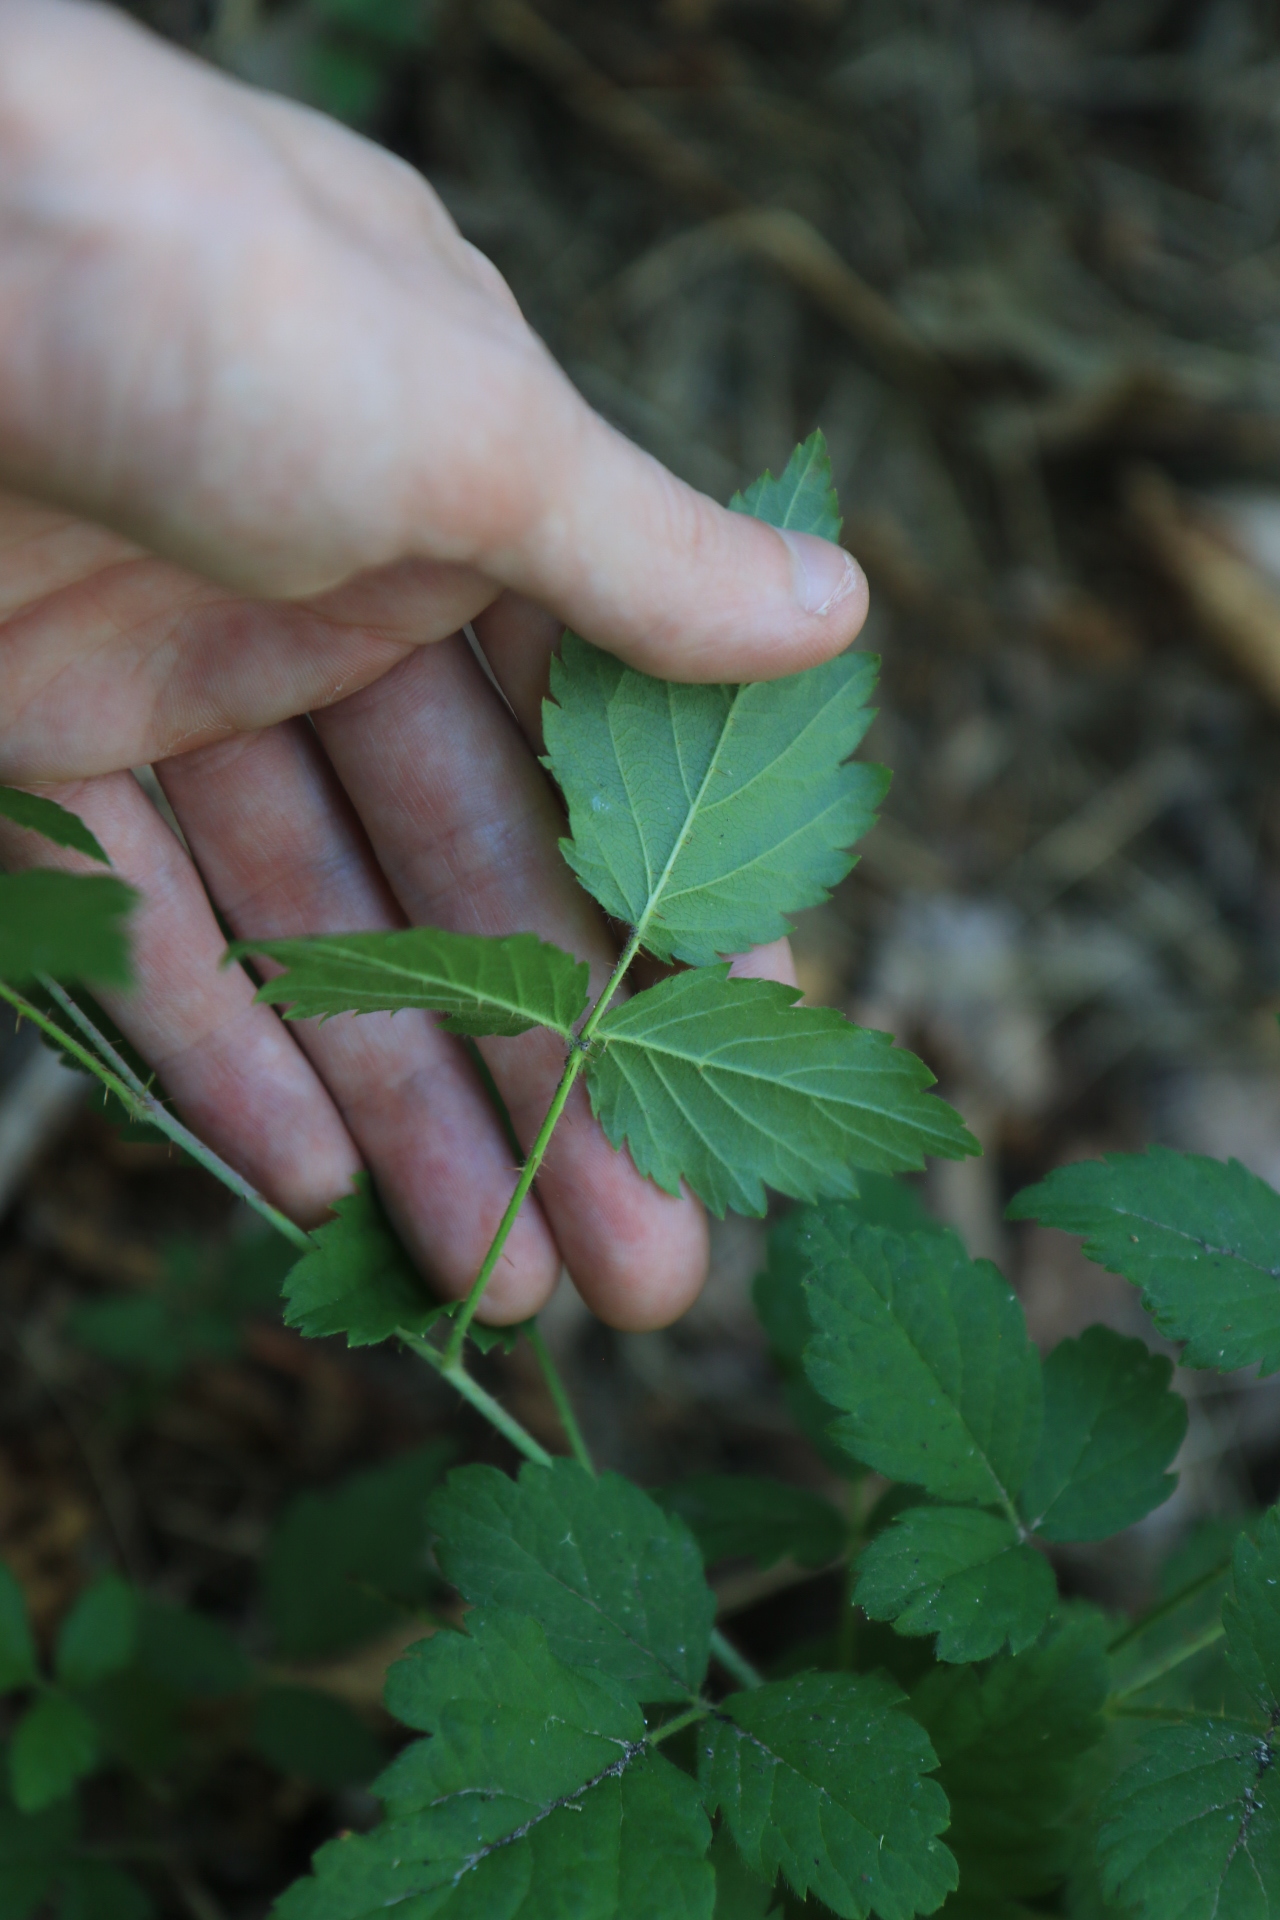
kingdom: Plantae
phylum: Tracheophyta
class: Magnoliopsida
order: Rosales
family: Rosaceae
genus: Rubus
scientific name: Rubus ursinus
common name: Pacific blackberry
